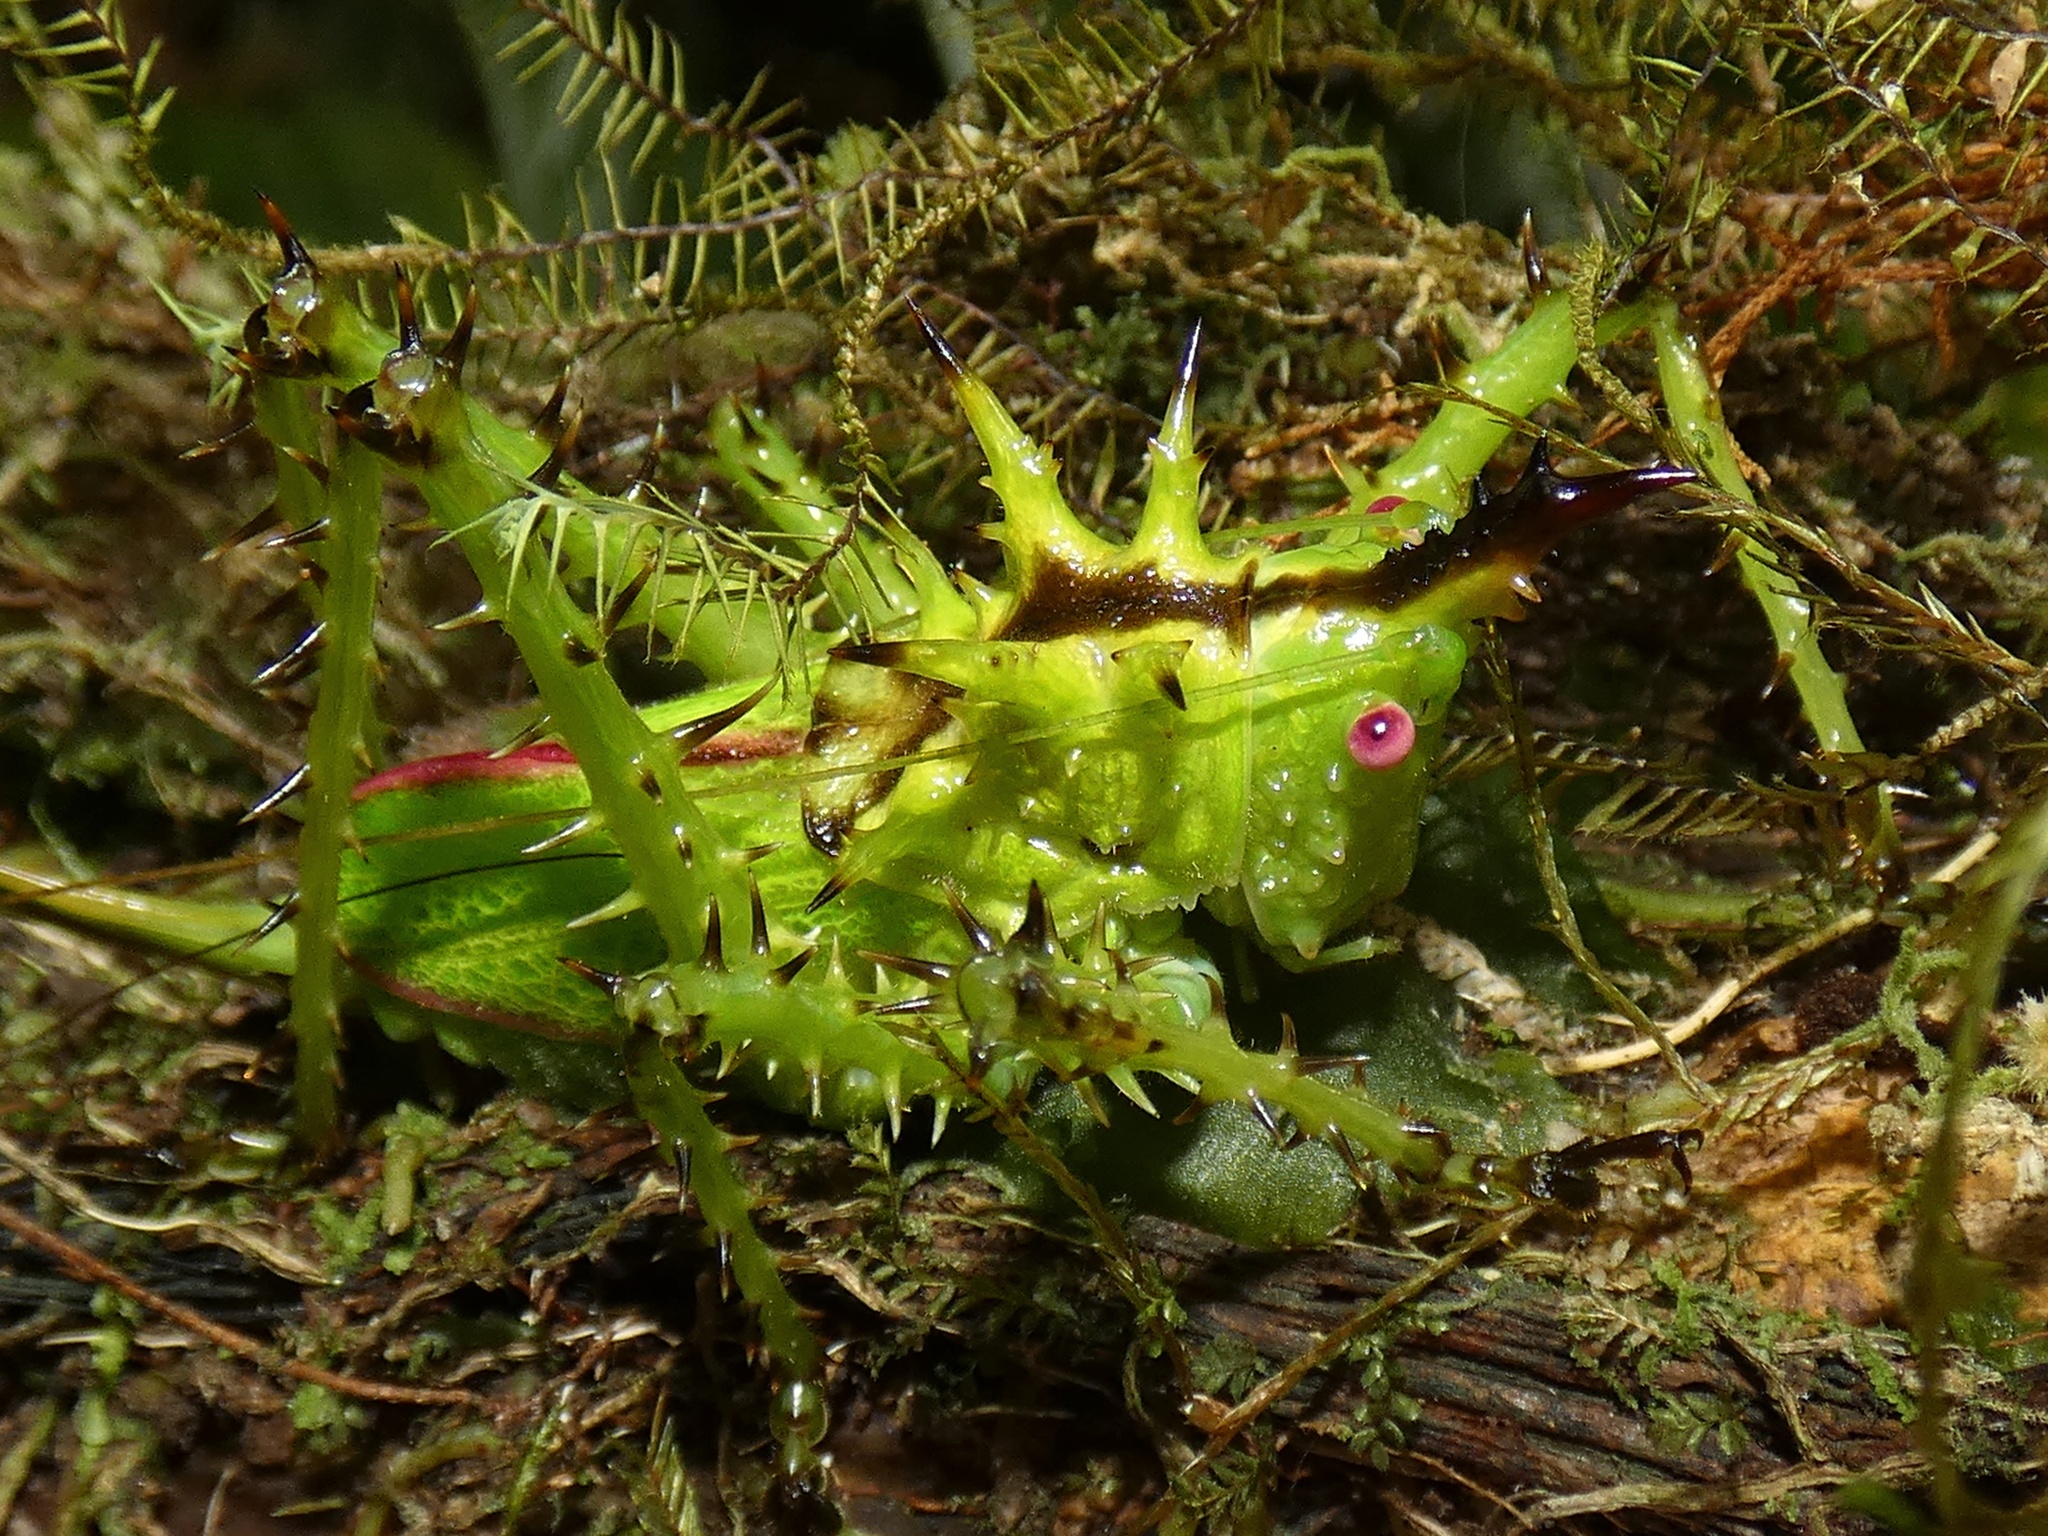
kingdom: Animalia
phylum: Arthropoda
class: Insecta
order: Orthoptera
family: Tettigoniidae
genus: Panacanthus
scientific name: Panacanthus spinosus
